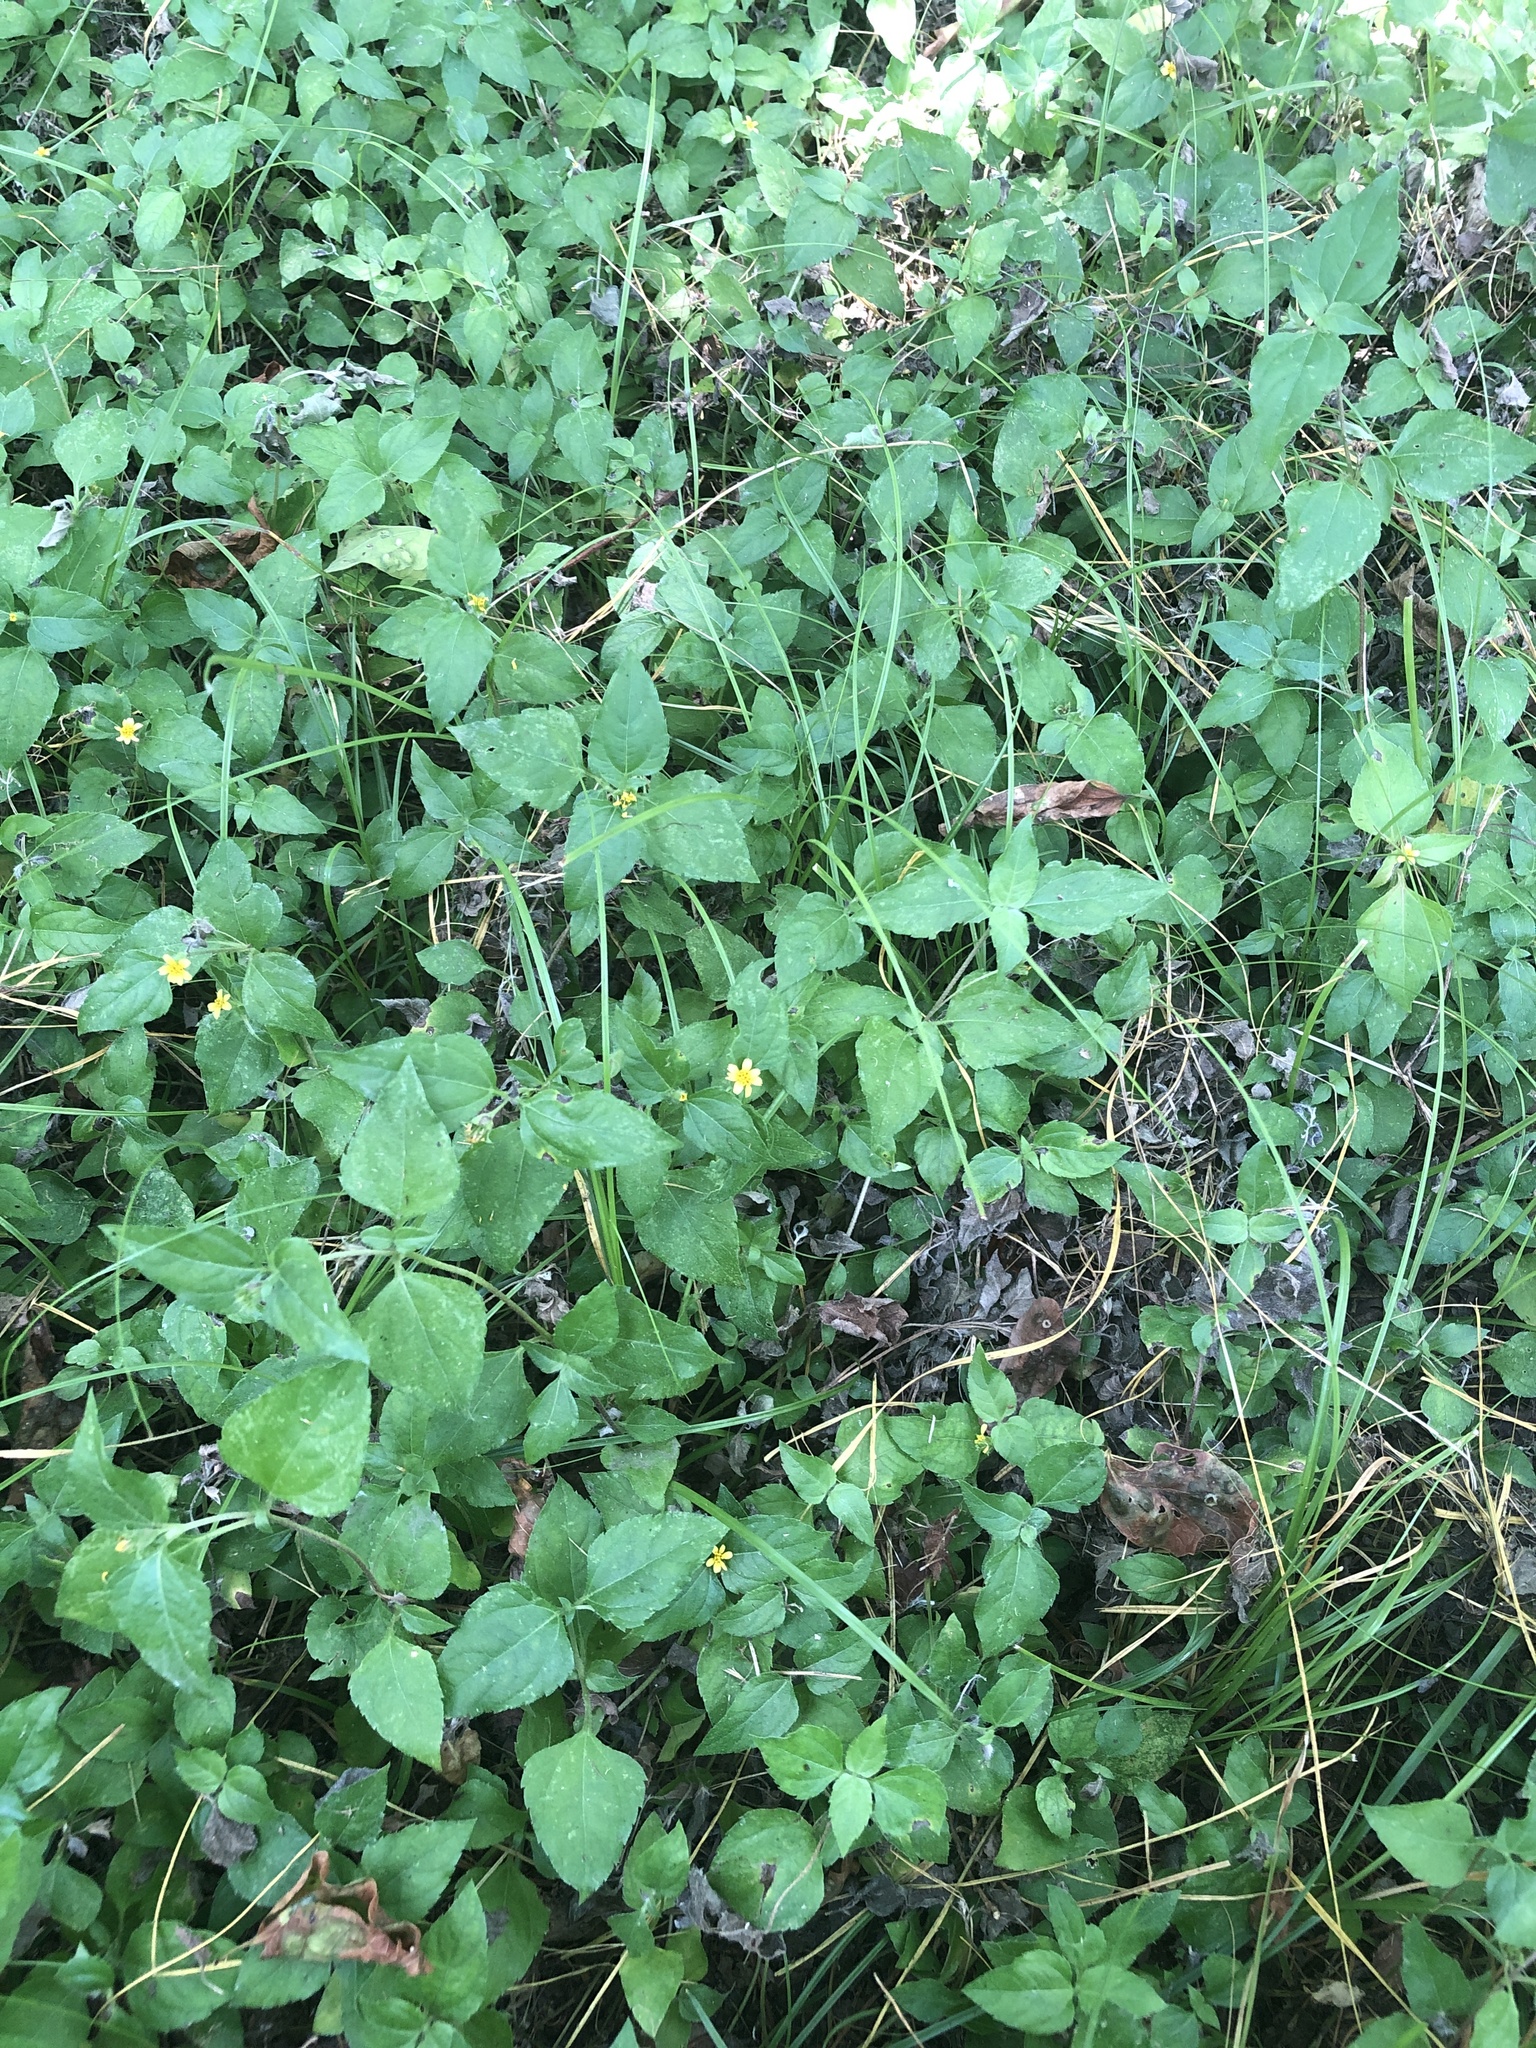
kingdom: Plantae
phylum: Tracheophyta
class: Magnoliopsida
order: Asterales
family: Asteraceae
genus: Calyptocarpus
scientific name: Calyptocarpus vialis
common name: Straggler daisy
